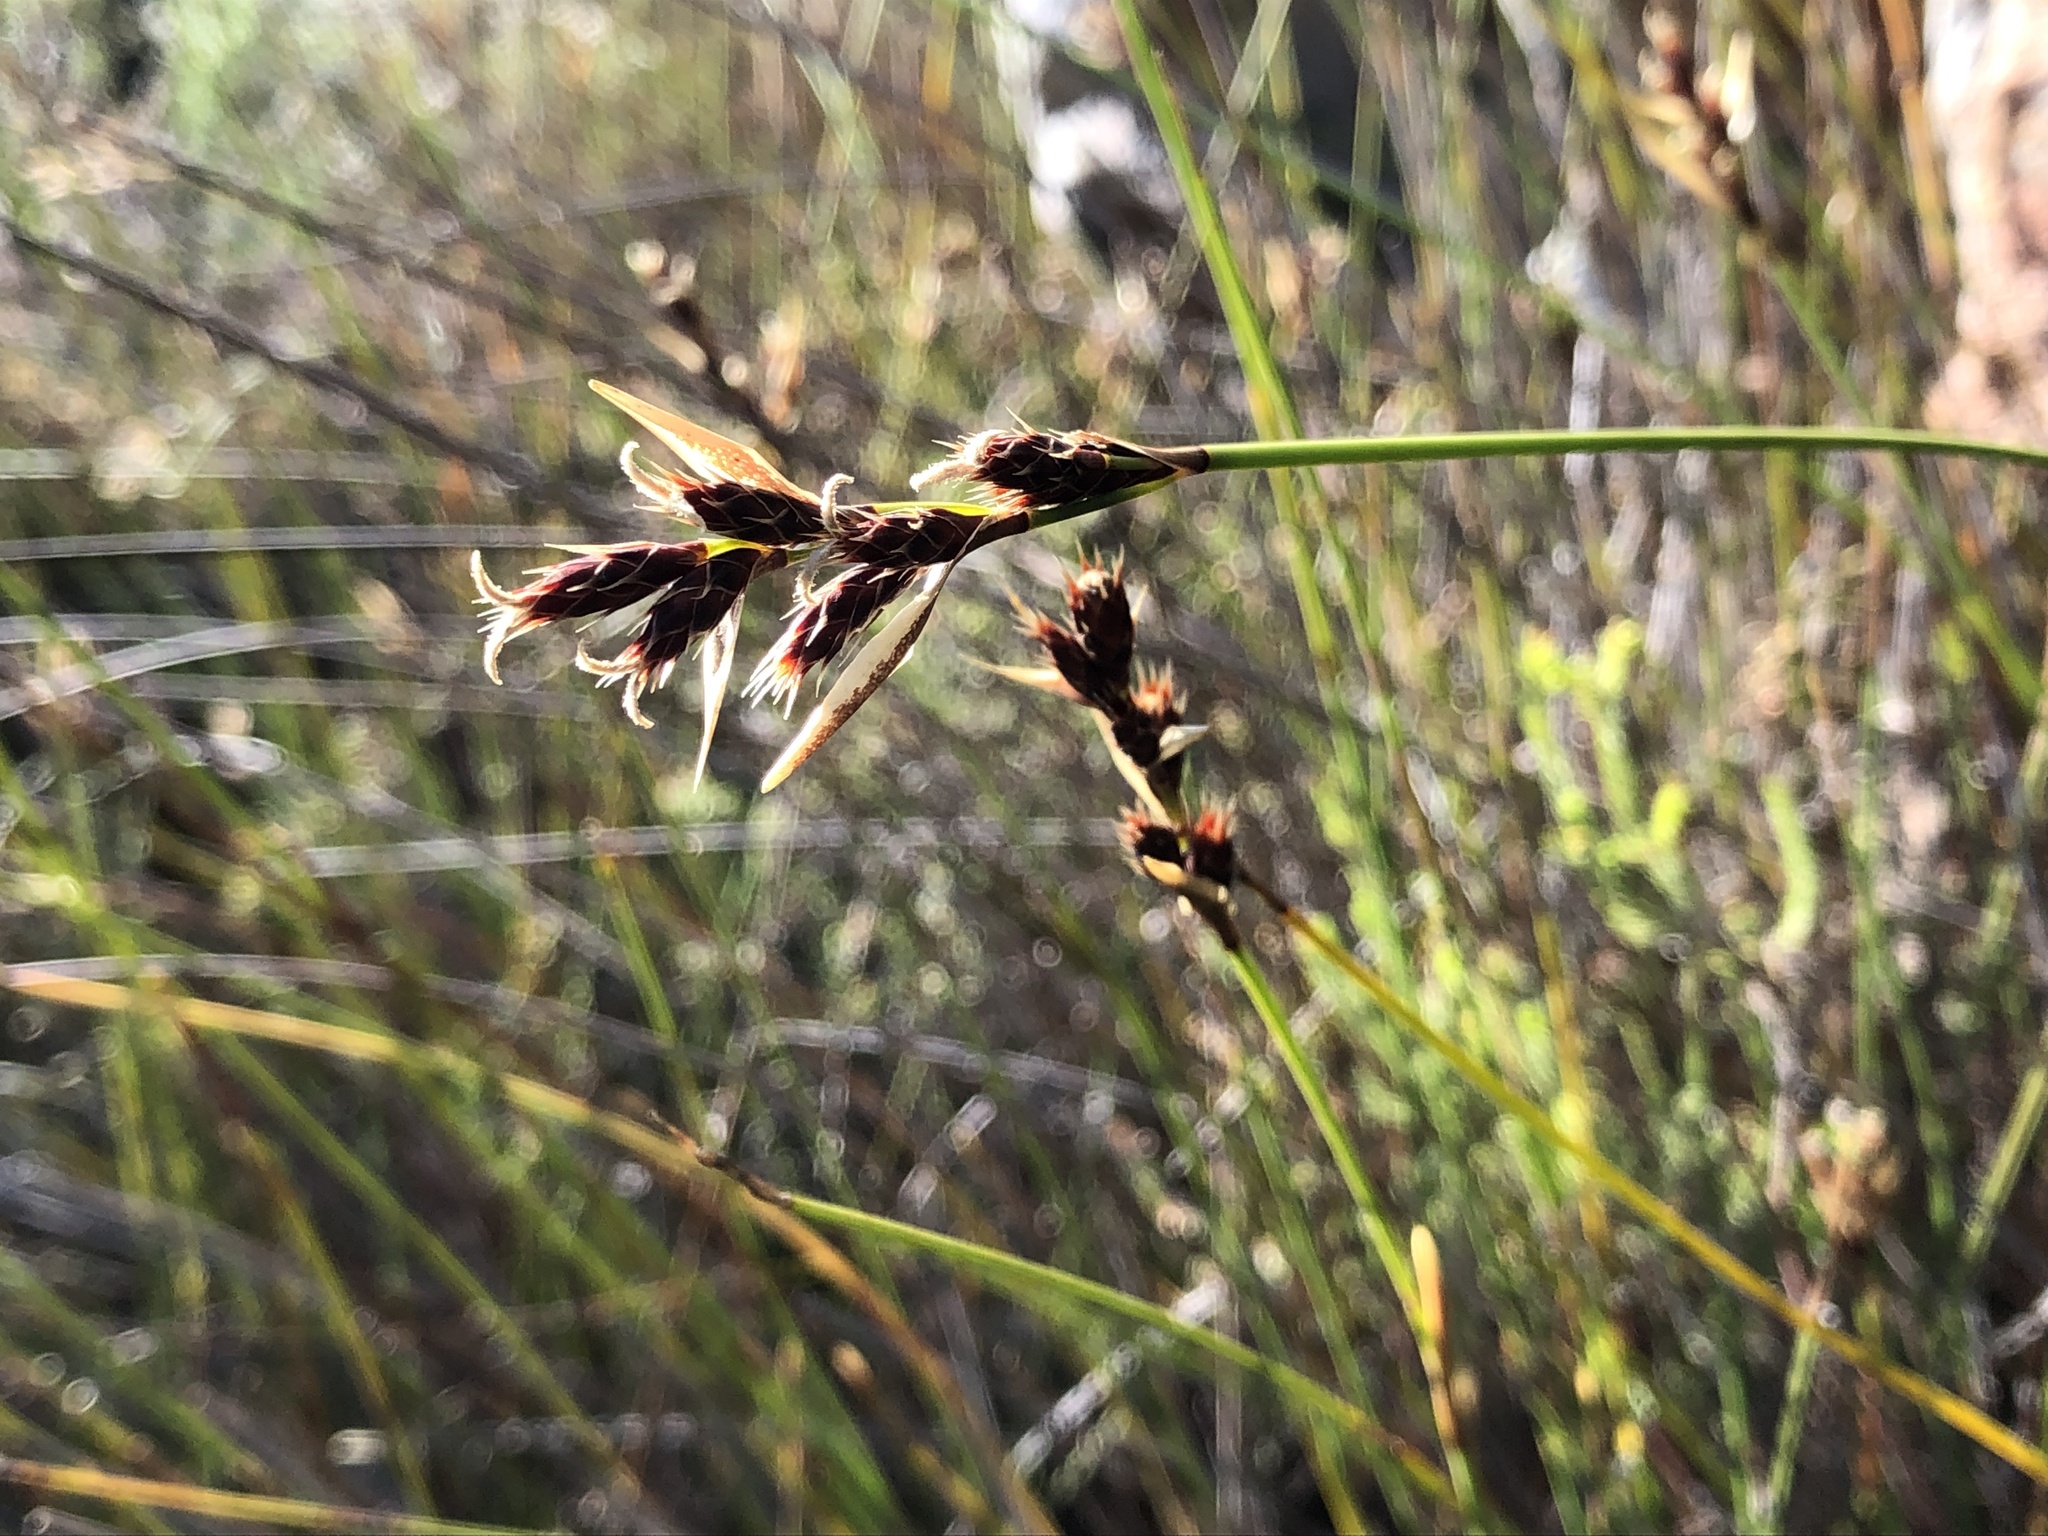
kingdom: Plantae
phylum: Tracheophyta
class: Liliopsida
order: Poales
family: Restionaceae
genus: Hypodiscus
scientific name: Hypodiscus alboaristatus
